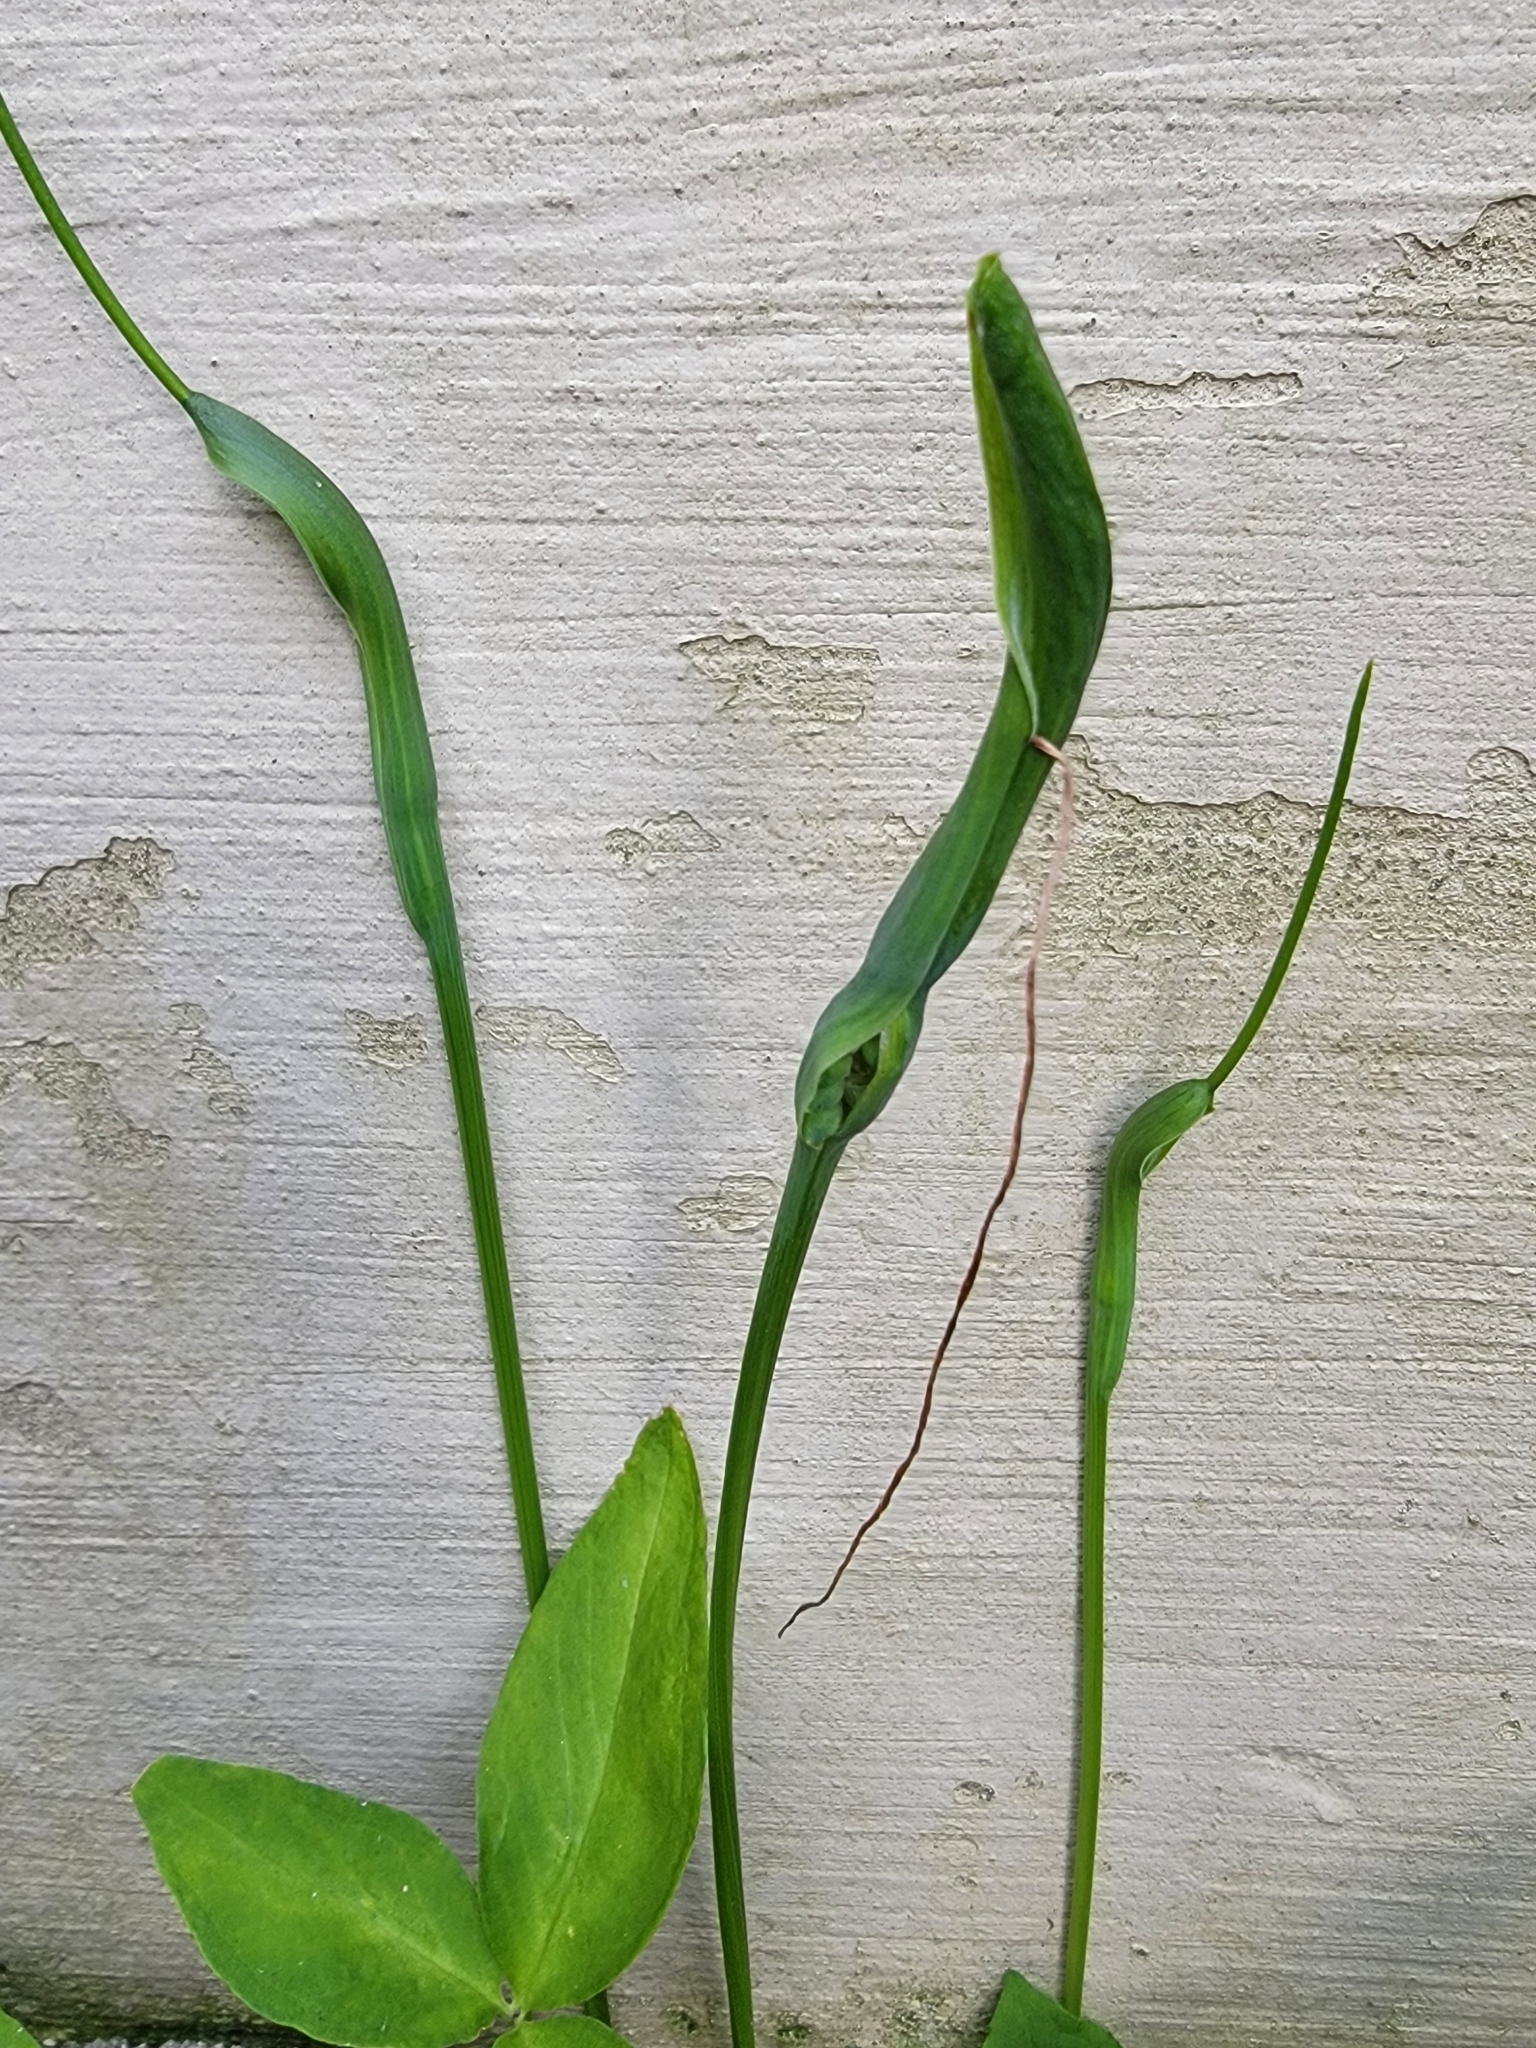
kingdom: Plantae
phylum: Tracheophyta
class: Liliopsida
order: Alismatales
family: Araceae
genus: Pinellia
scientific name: Pinellia ternata
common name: Pinellia
